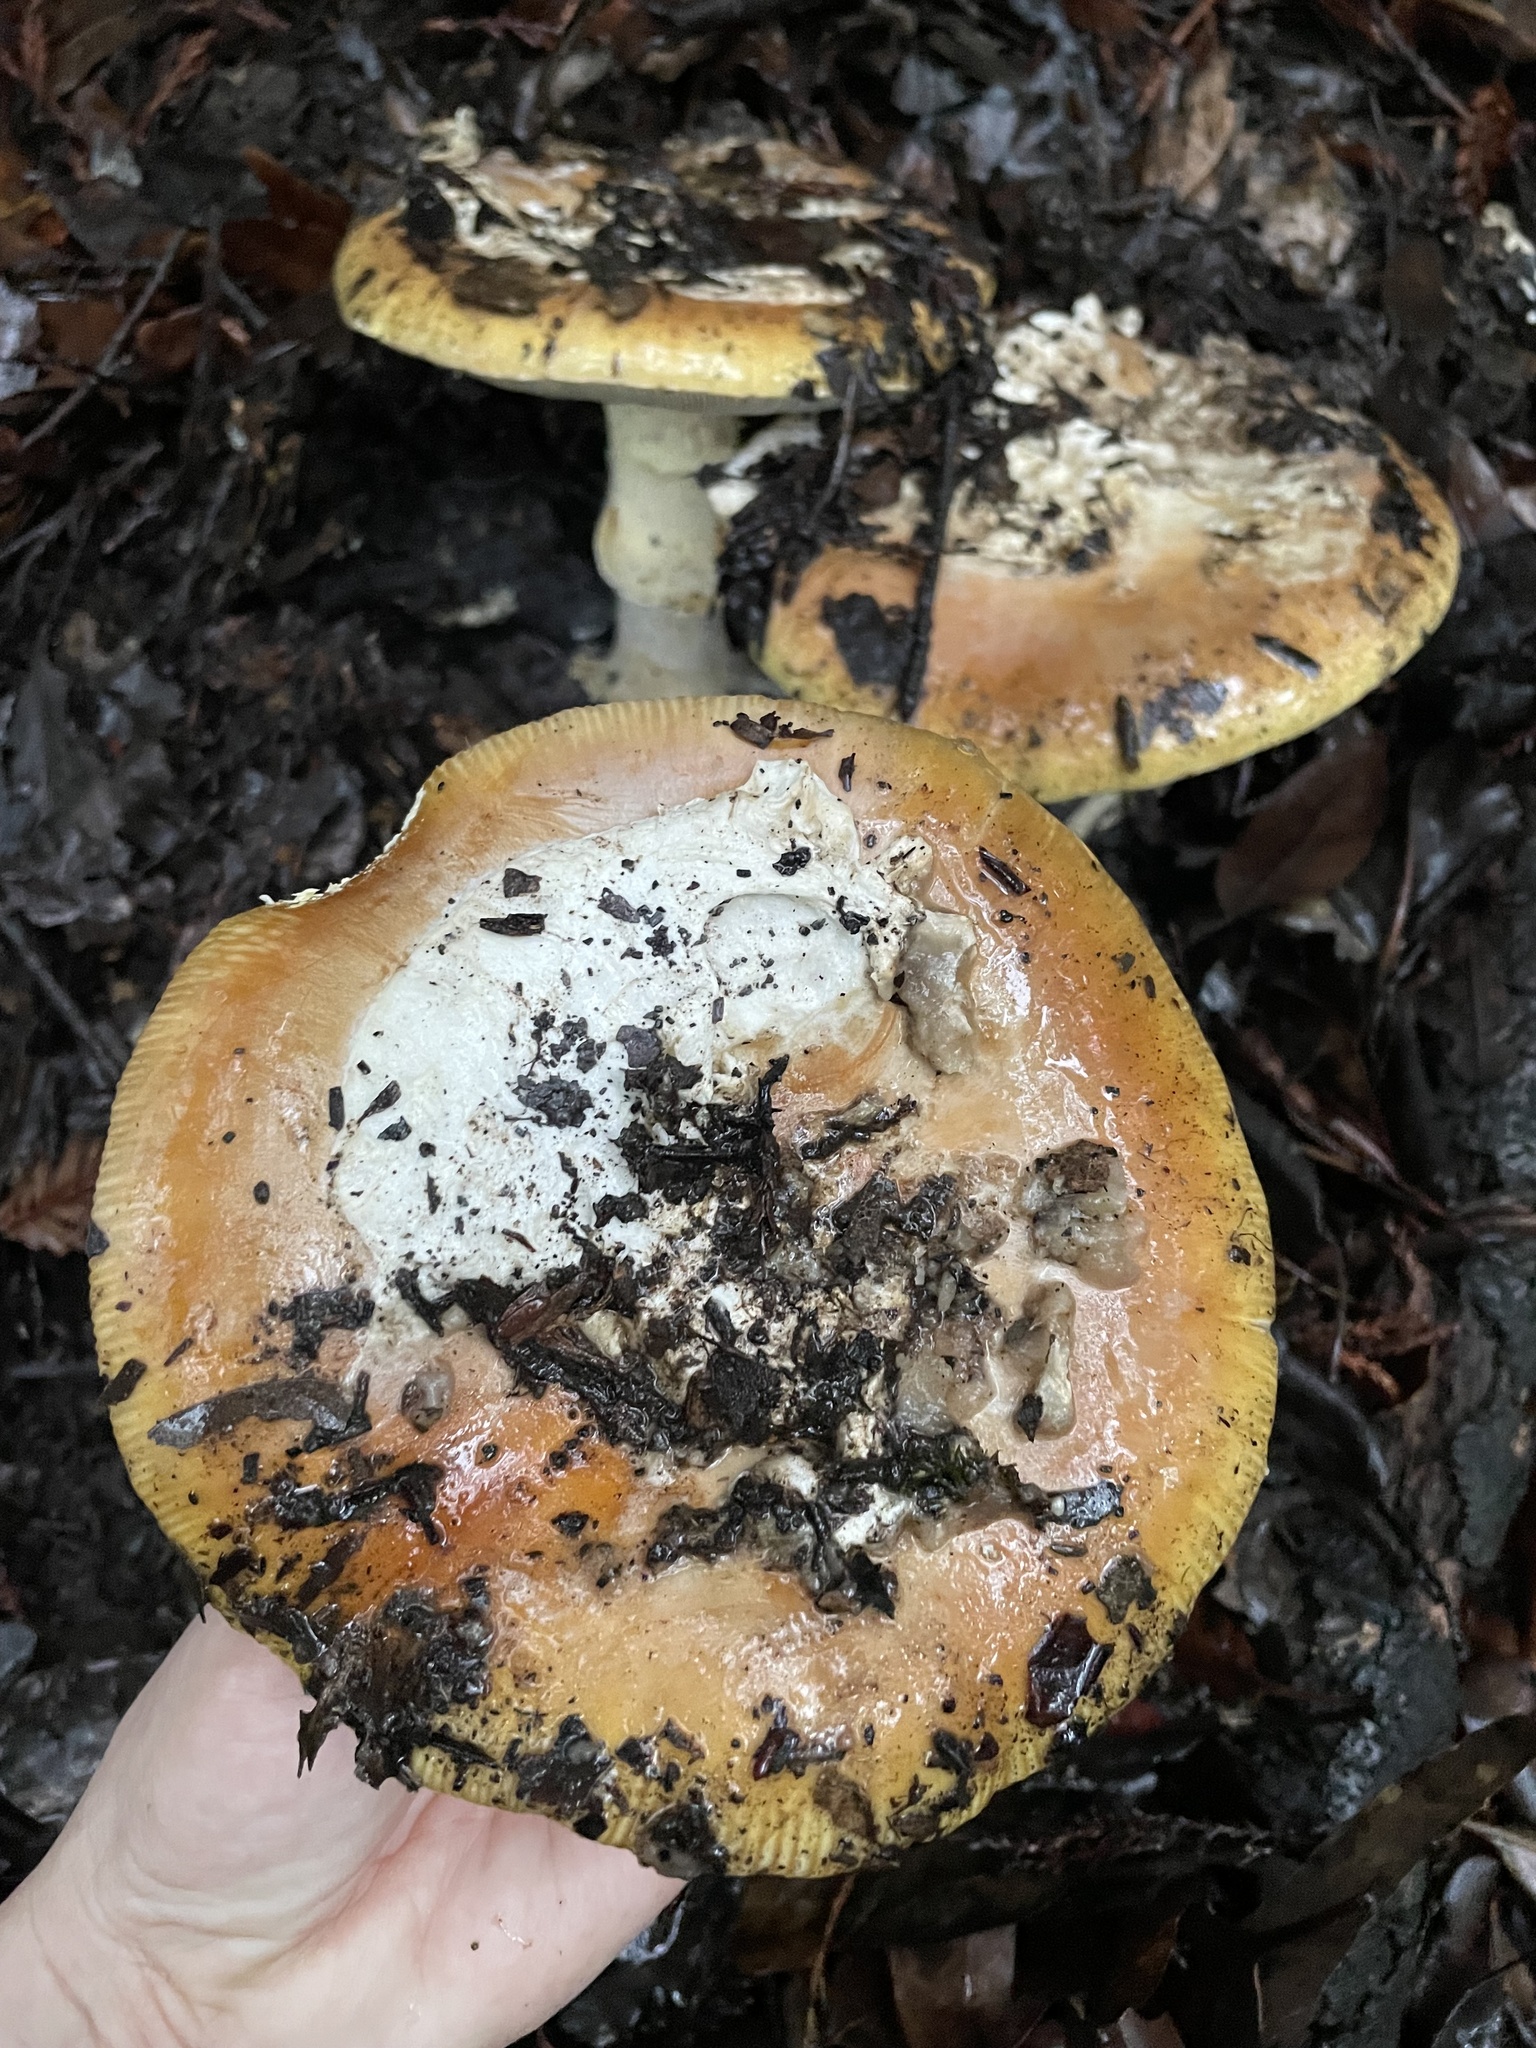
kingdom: Fungi
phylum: Basidiomycota
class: Agaricomycetes
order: Agaricales
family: Amanitaceae
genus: Amanita
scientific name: Amanita calyptroderma
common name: Coccora
